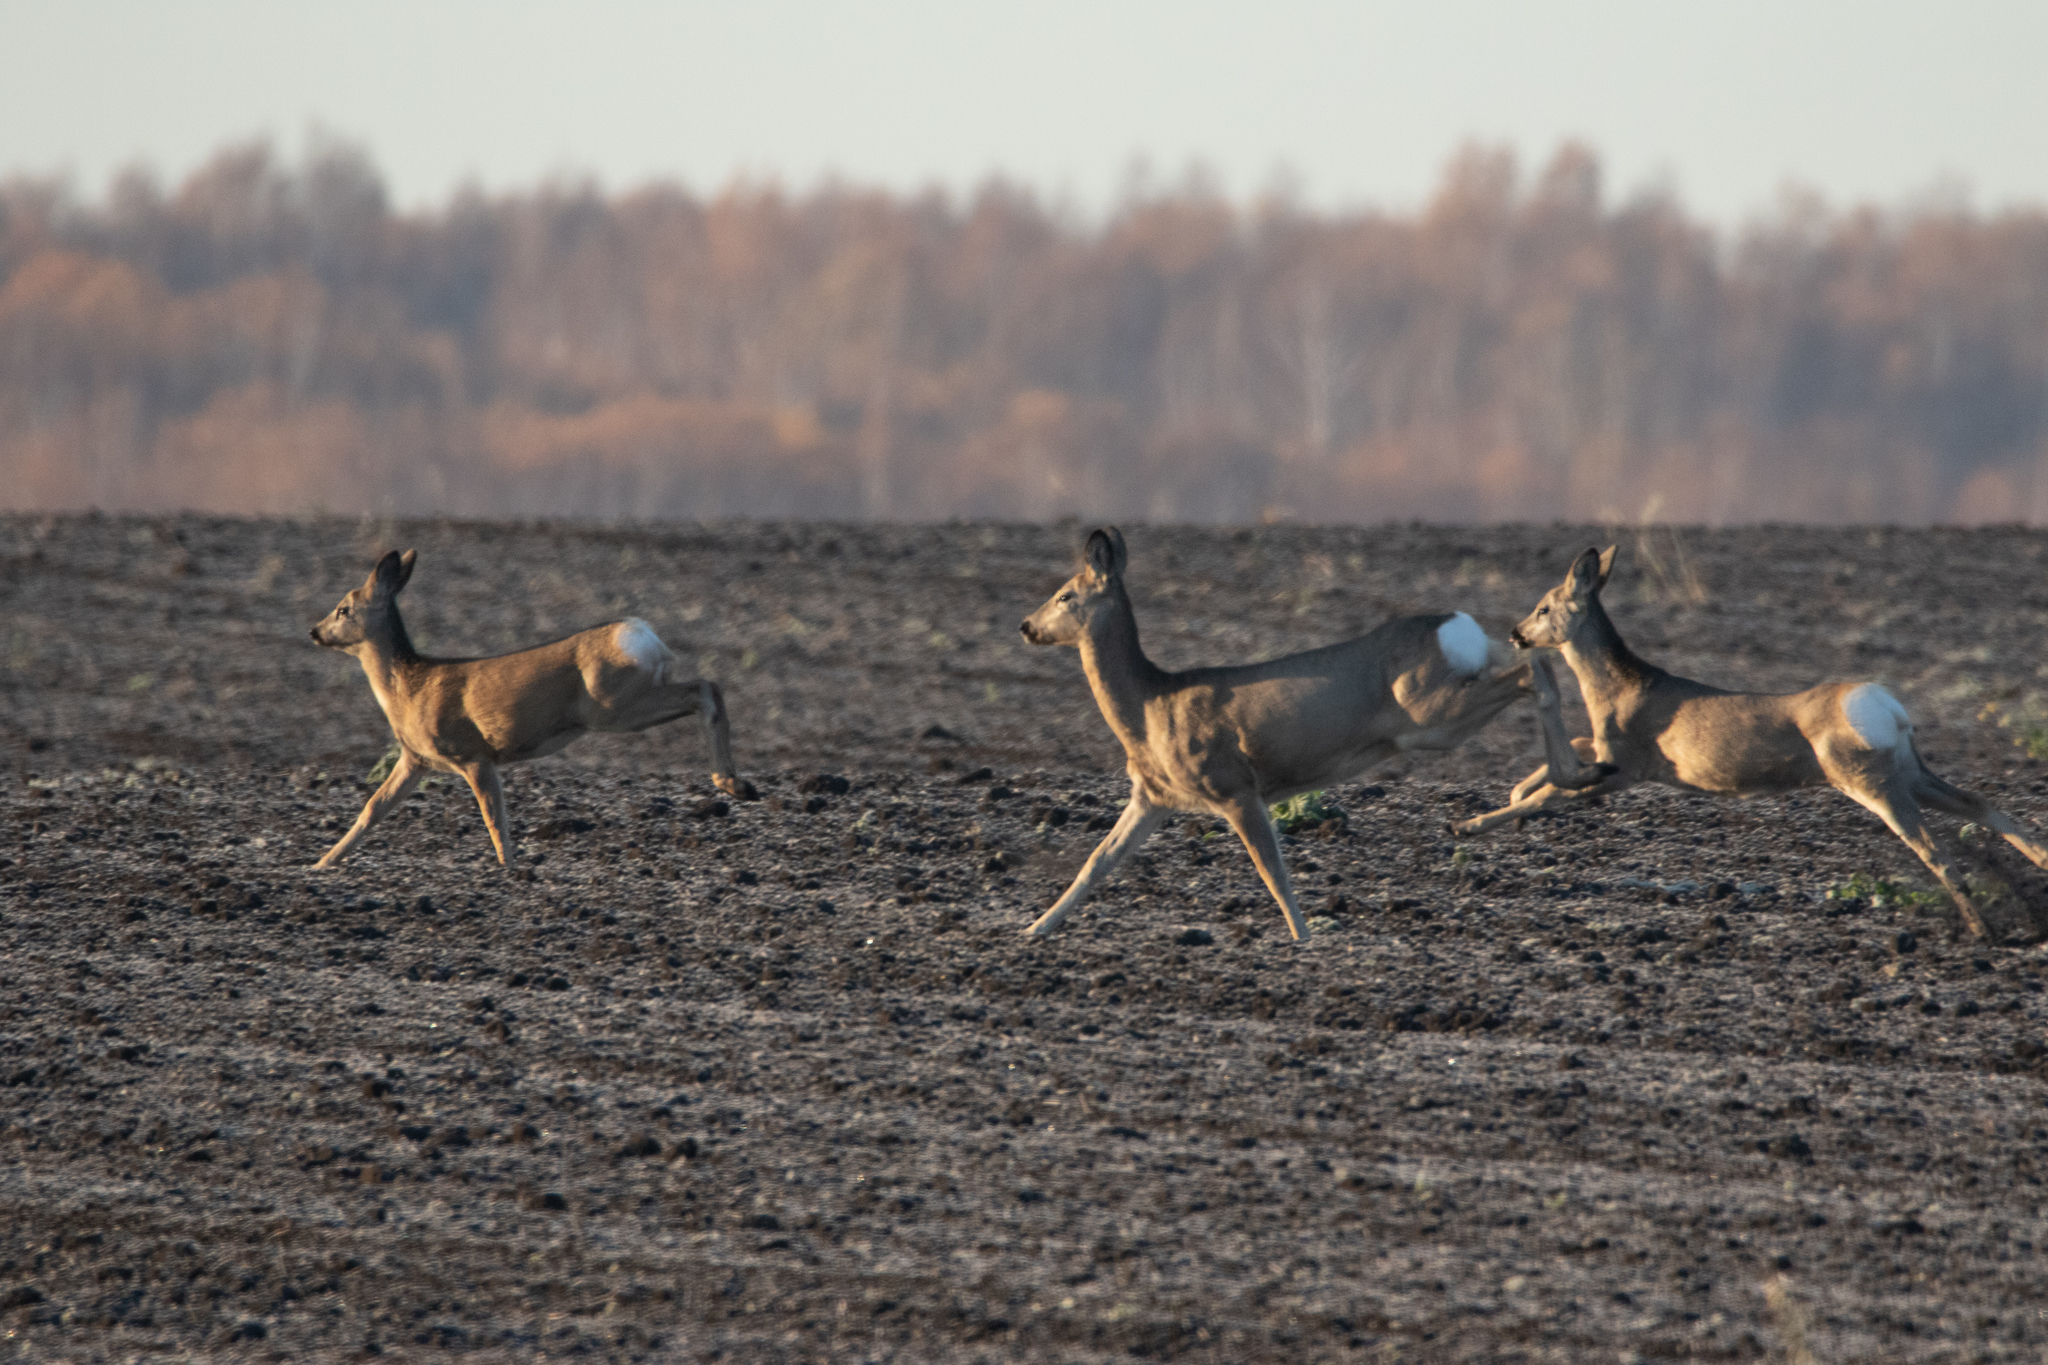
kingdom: Animalia
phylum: Chordata
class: Mammalia
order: Artiodactyla
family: Cervidae
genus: Capreolus
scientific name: Capreolus pygargus
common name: Siberian roe
